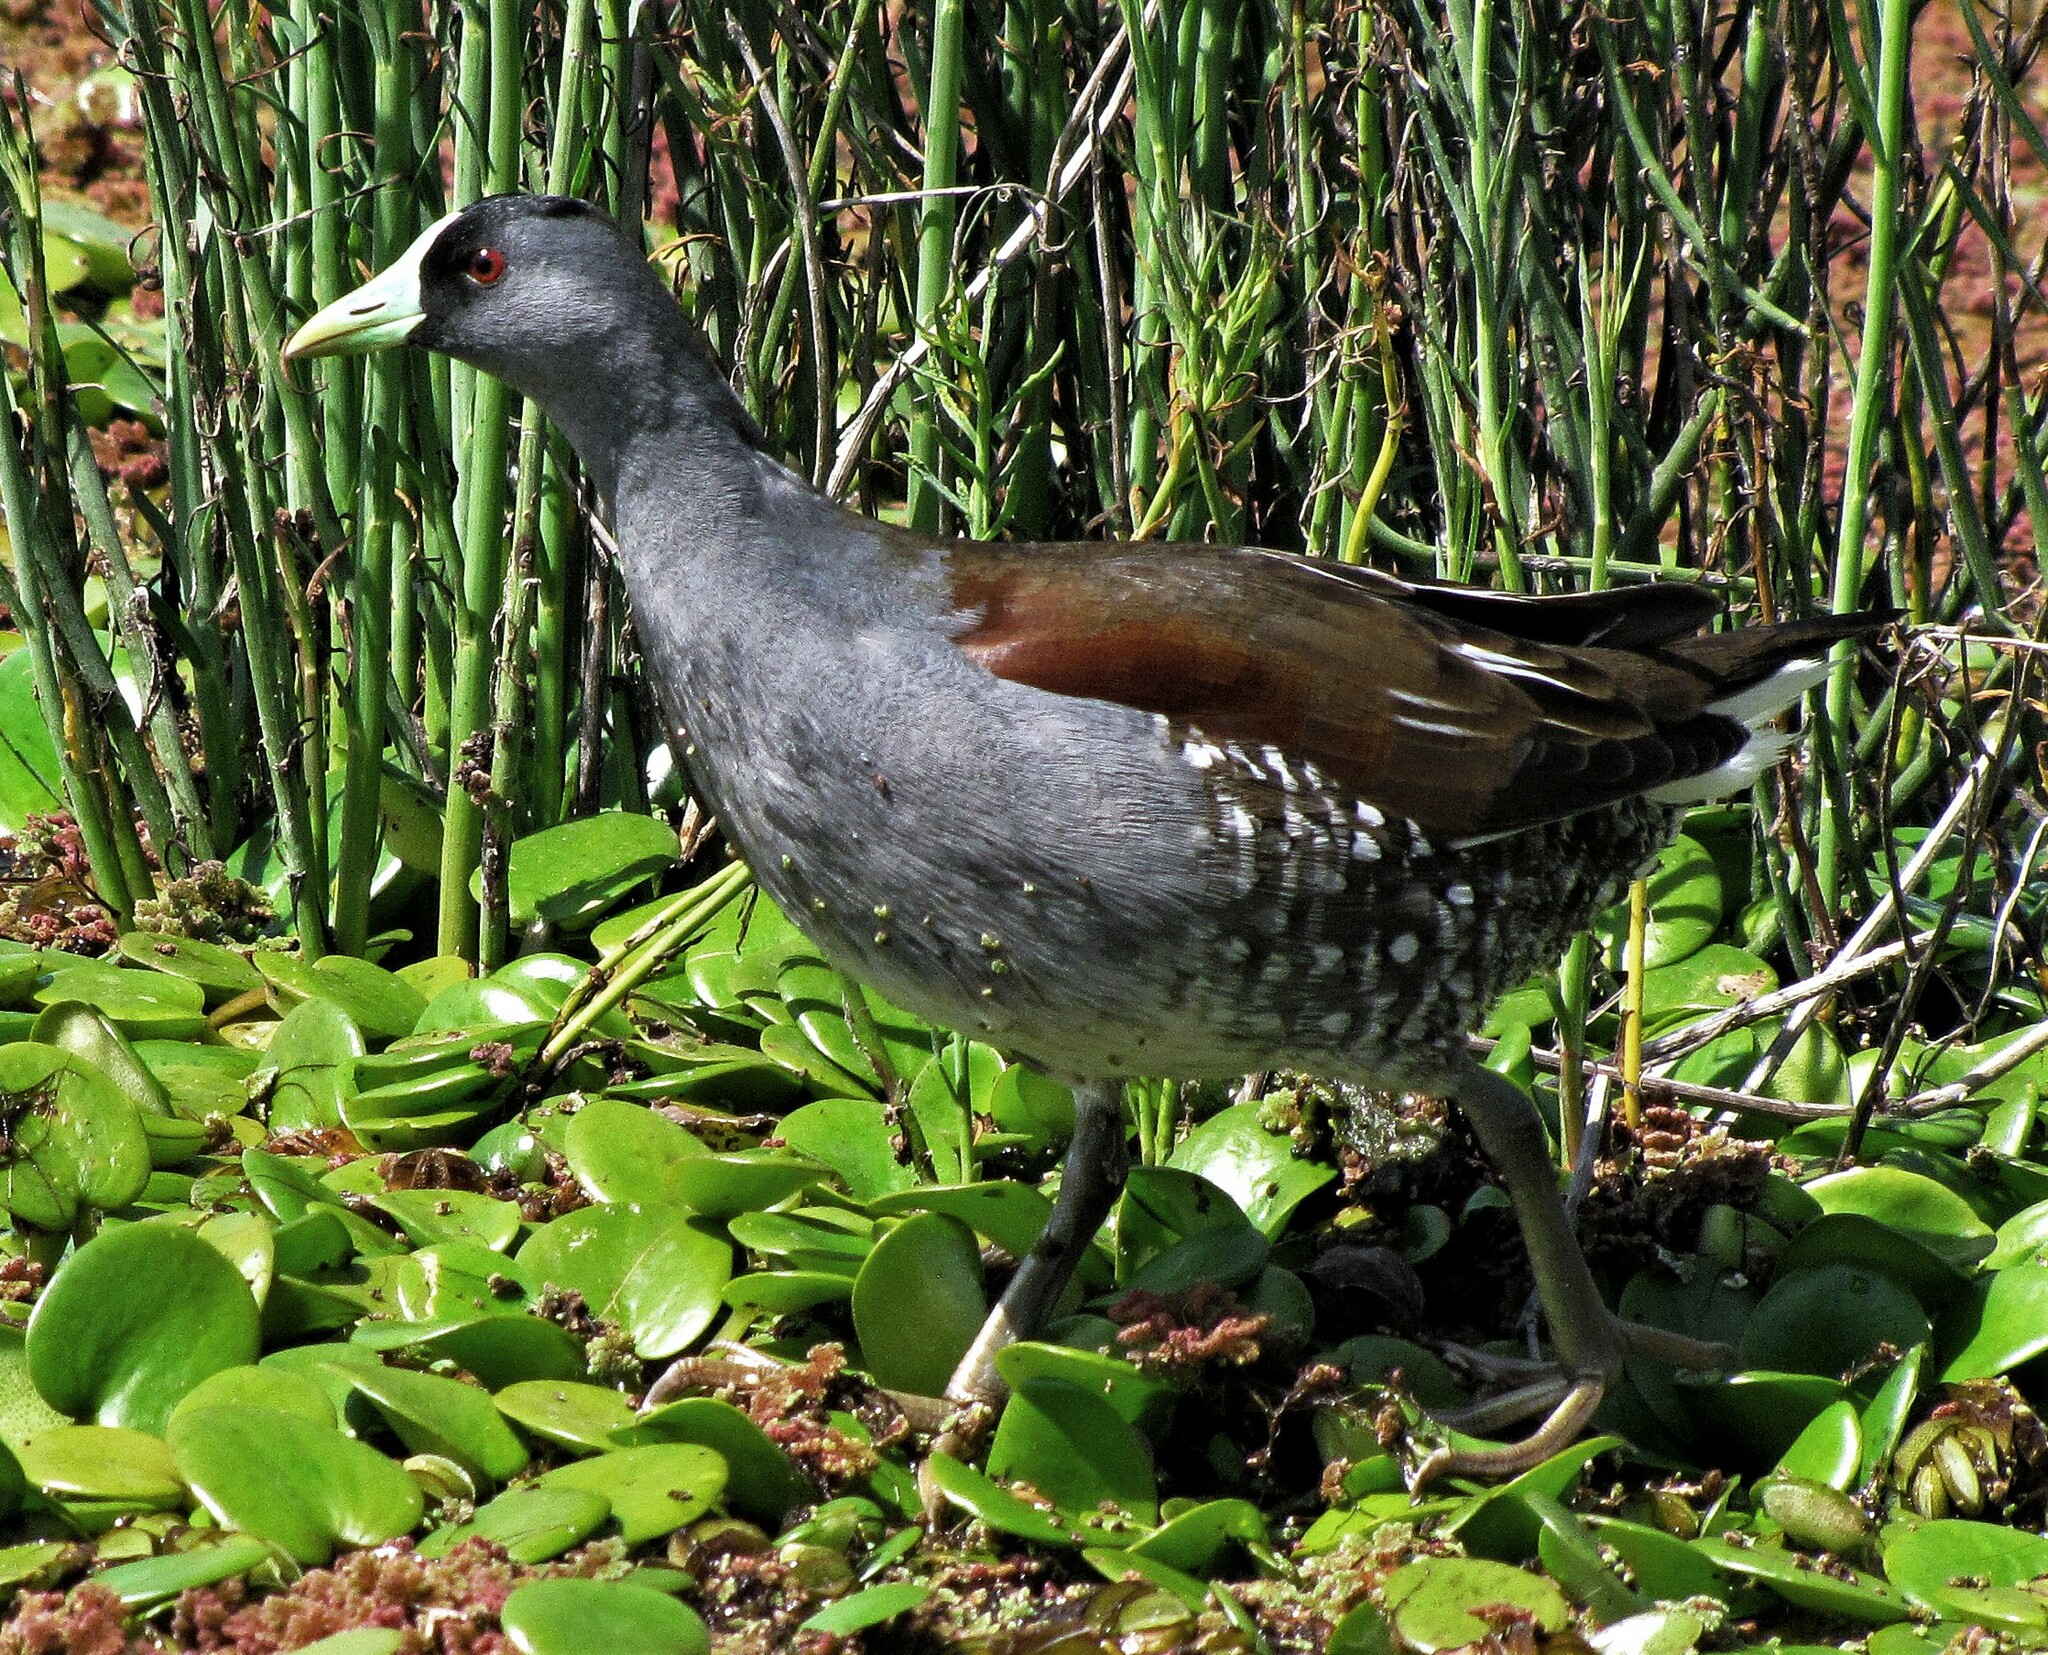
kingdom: Animalia
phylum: Chordata
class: Aves
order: Gruiformes
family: Rallidae
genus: Gallinula
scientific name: Gallinula melanops
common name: Spot-flanked gallinule
